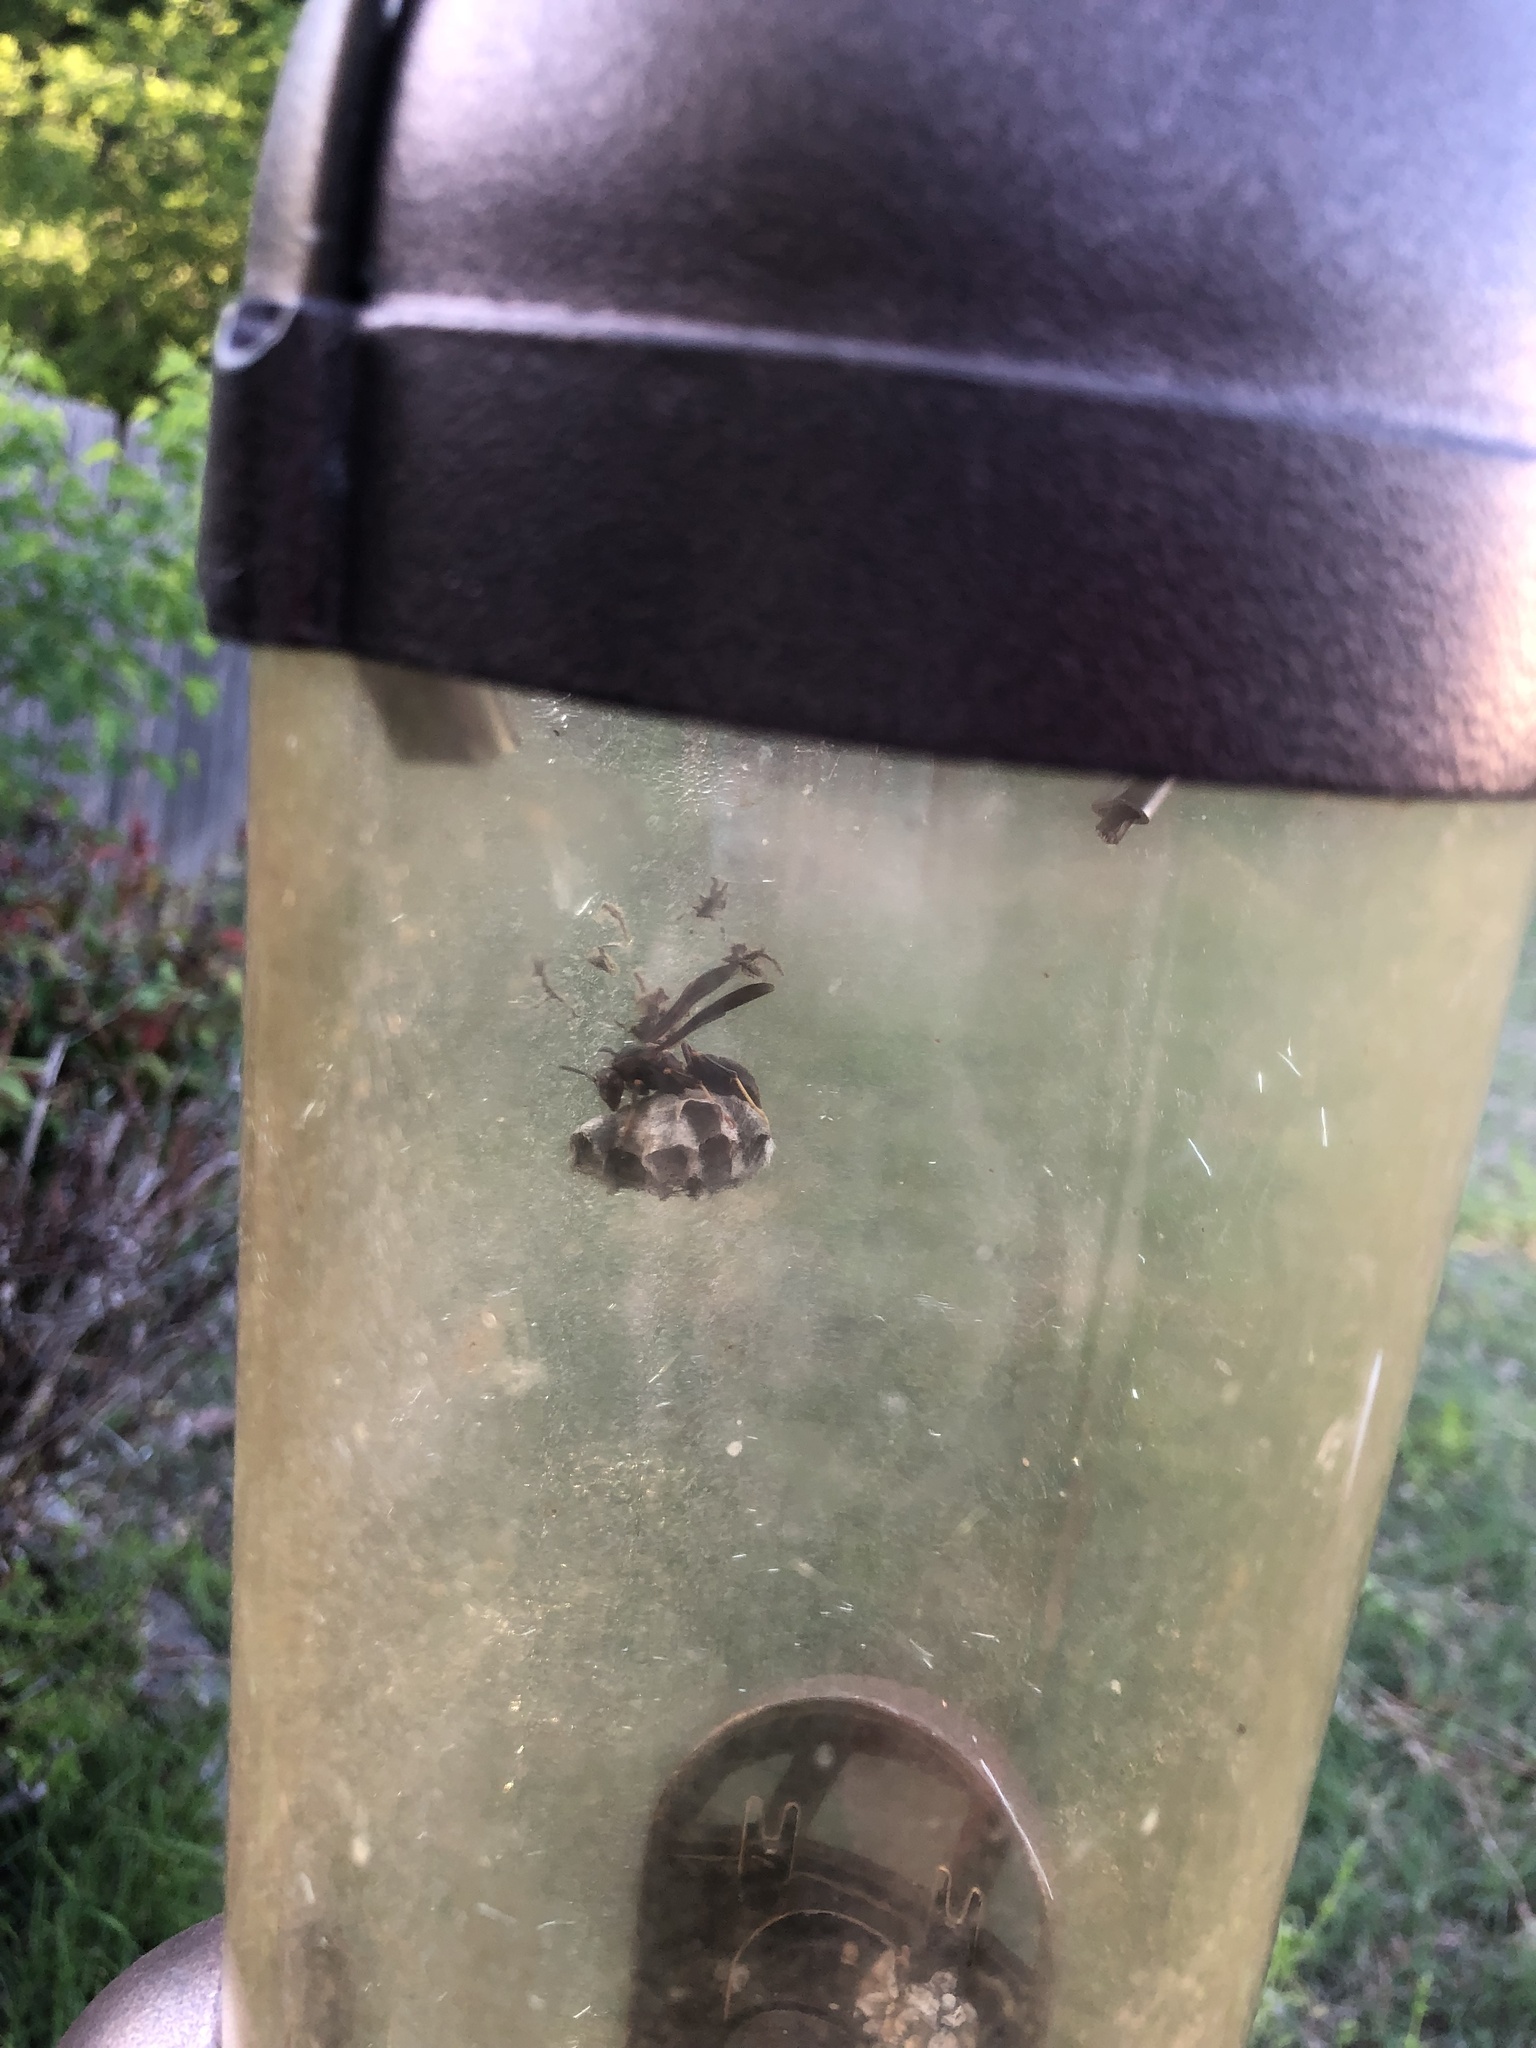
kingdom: Animalia
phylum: Arthropoda
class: Insecta
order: Hymenoptera
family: Eumenidae
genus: Polistes
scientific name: Polistes metricus
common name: Metric paper wasp
